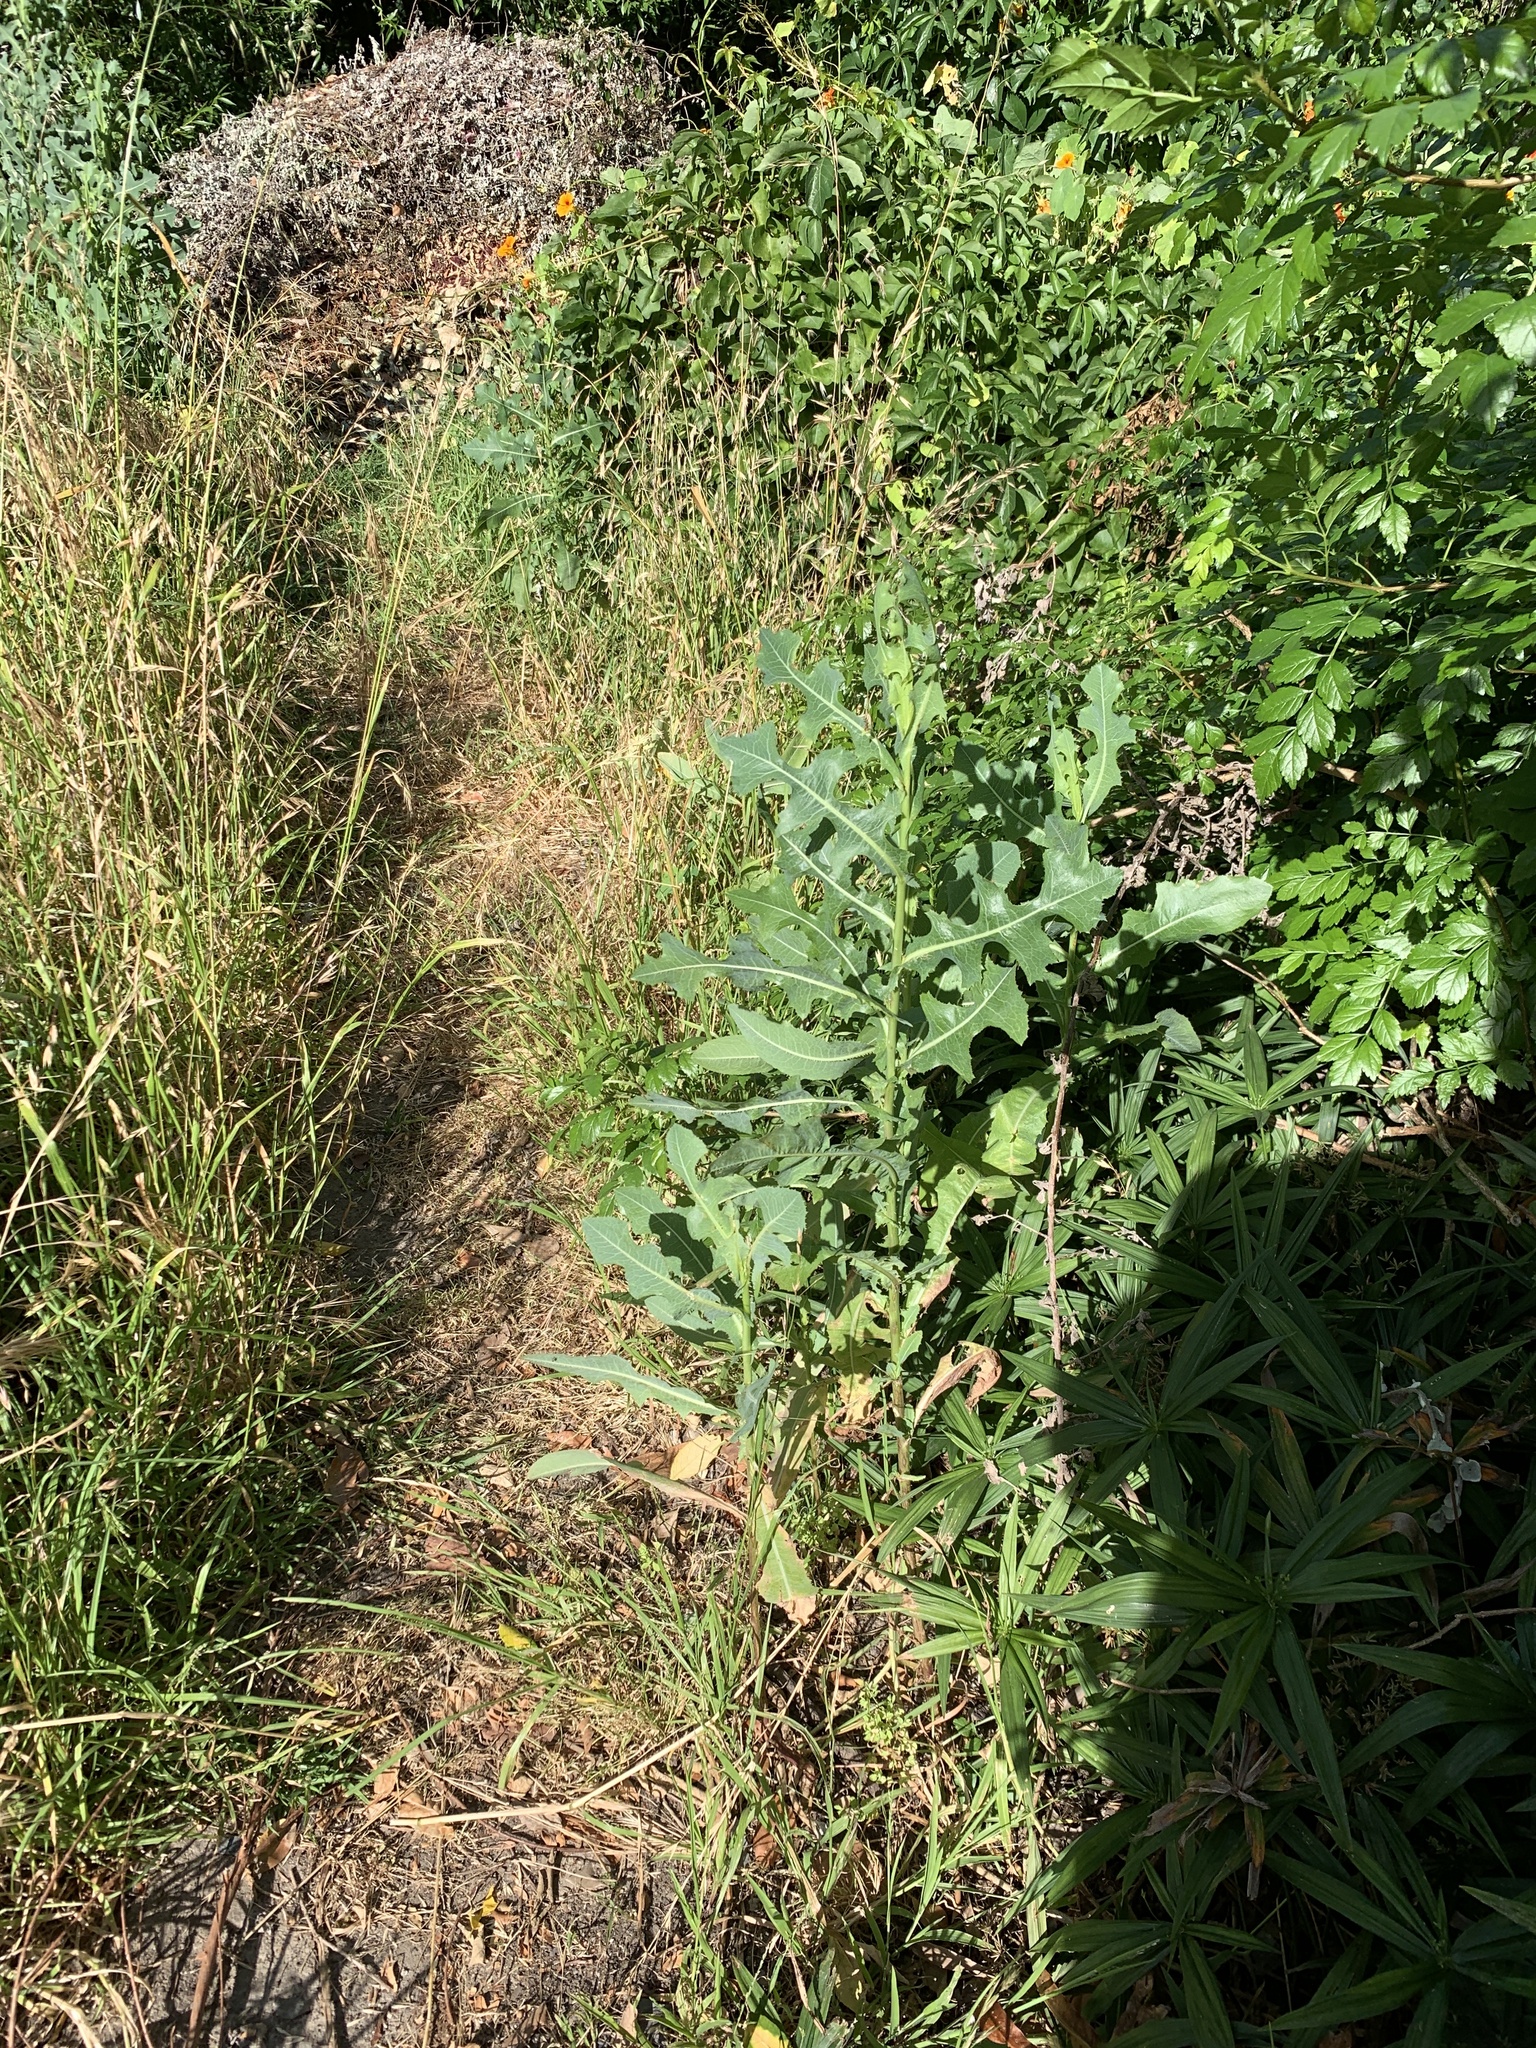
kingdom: Plantae
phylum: Tracheophyta
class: Magnoliopsida
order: Asterales
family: Asteraceae
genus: Lactuca
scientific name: Lactuca serriola
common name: Prickly lettuce
